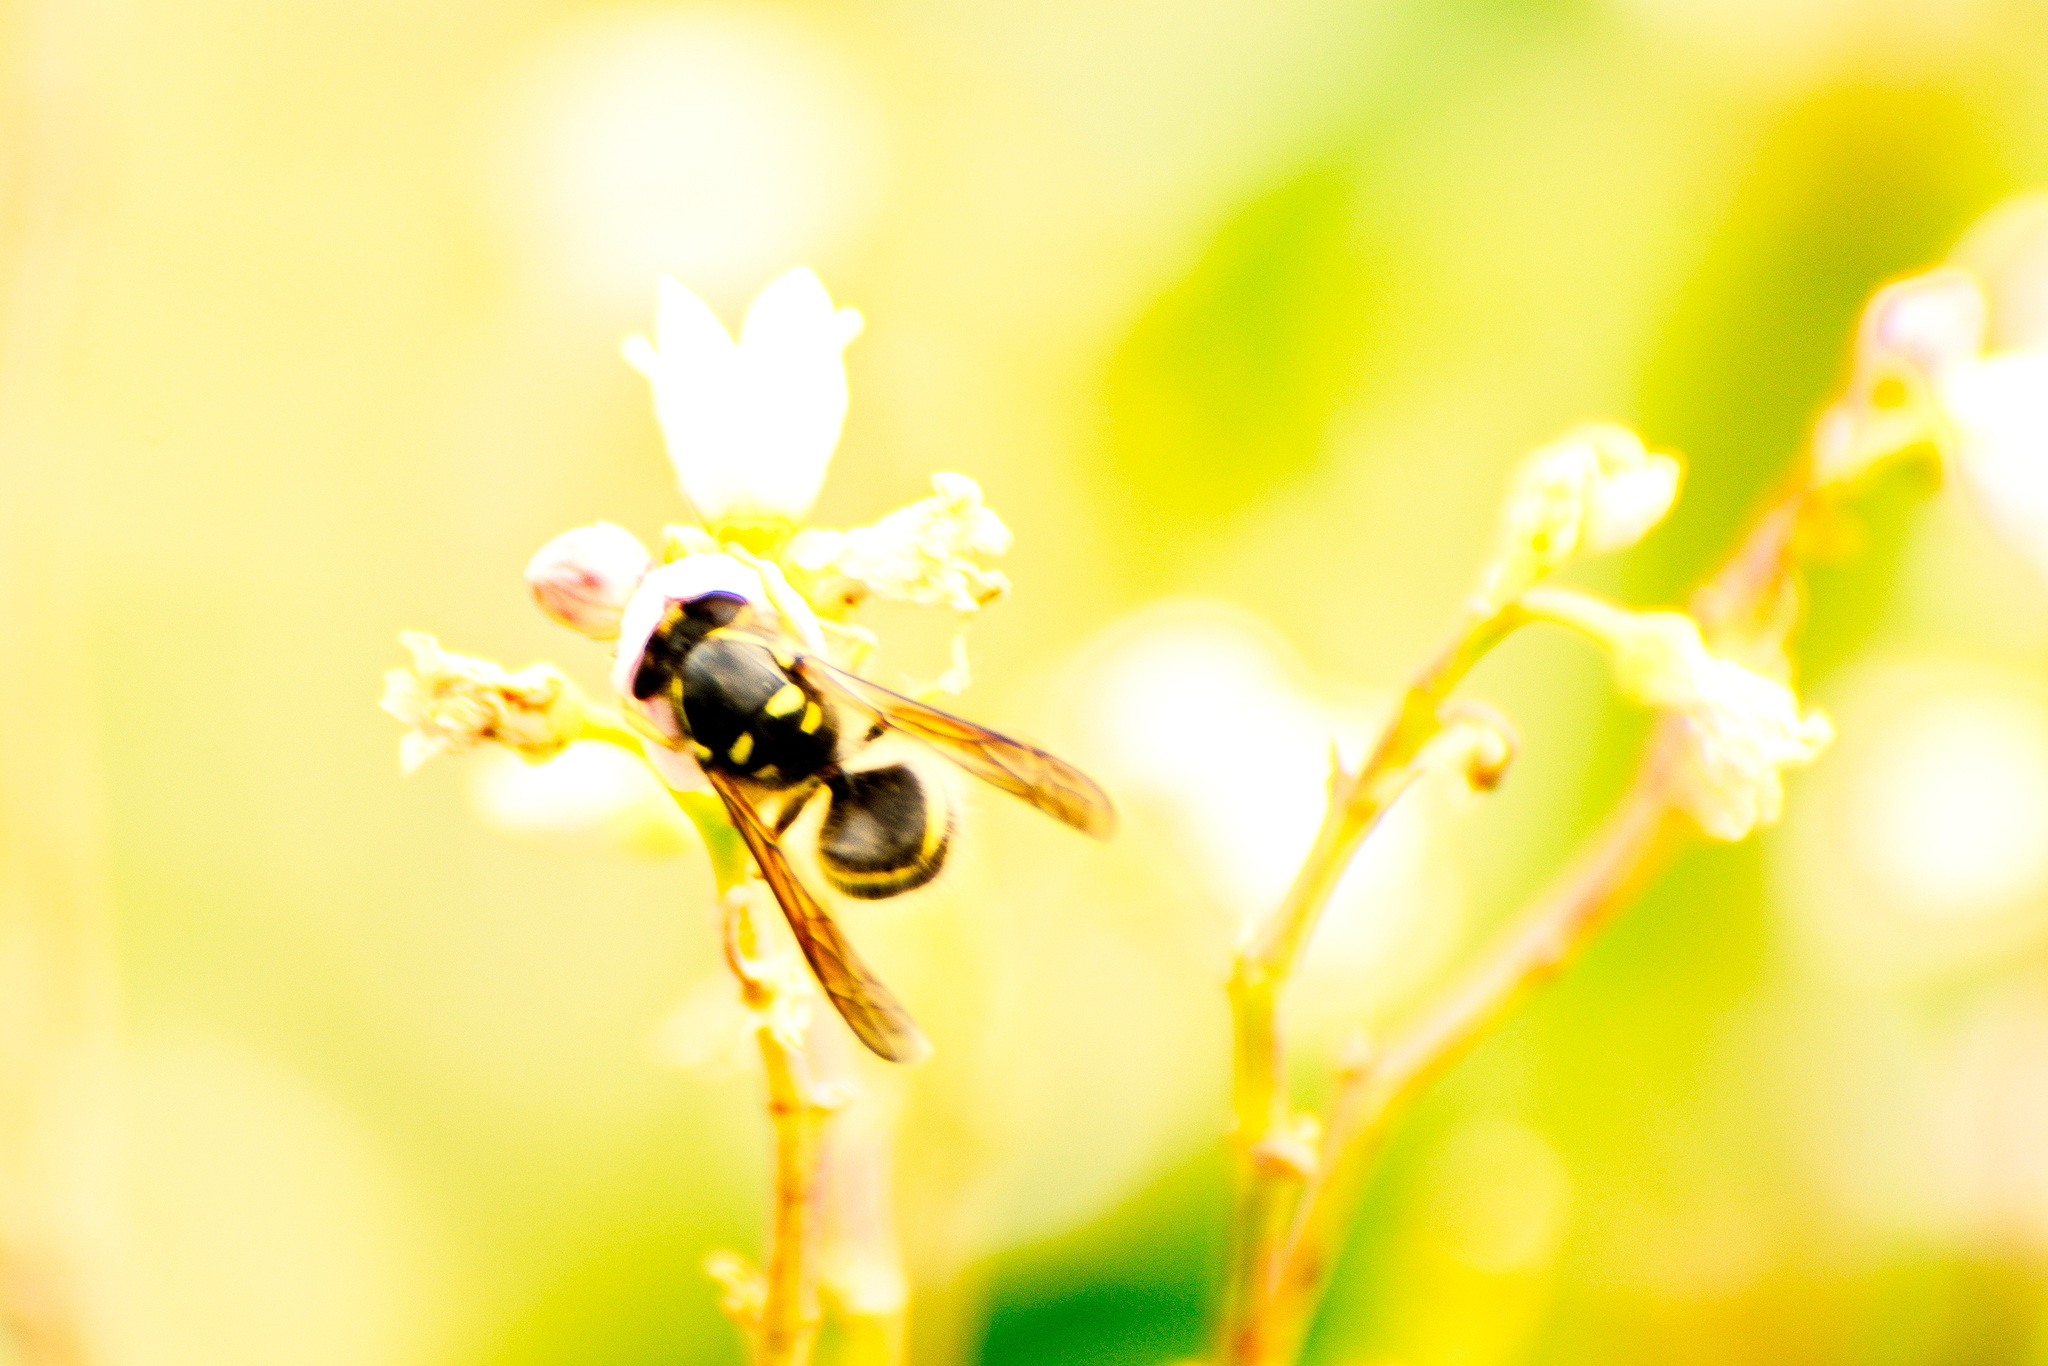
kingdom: Animalia
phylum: Arthropoda
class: Insecta
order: Hymenoptera
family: Vespidae
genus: Dolichovespula
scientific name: Dolichovespula arenaria
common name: Aerial yellowjacket
